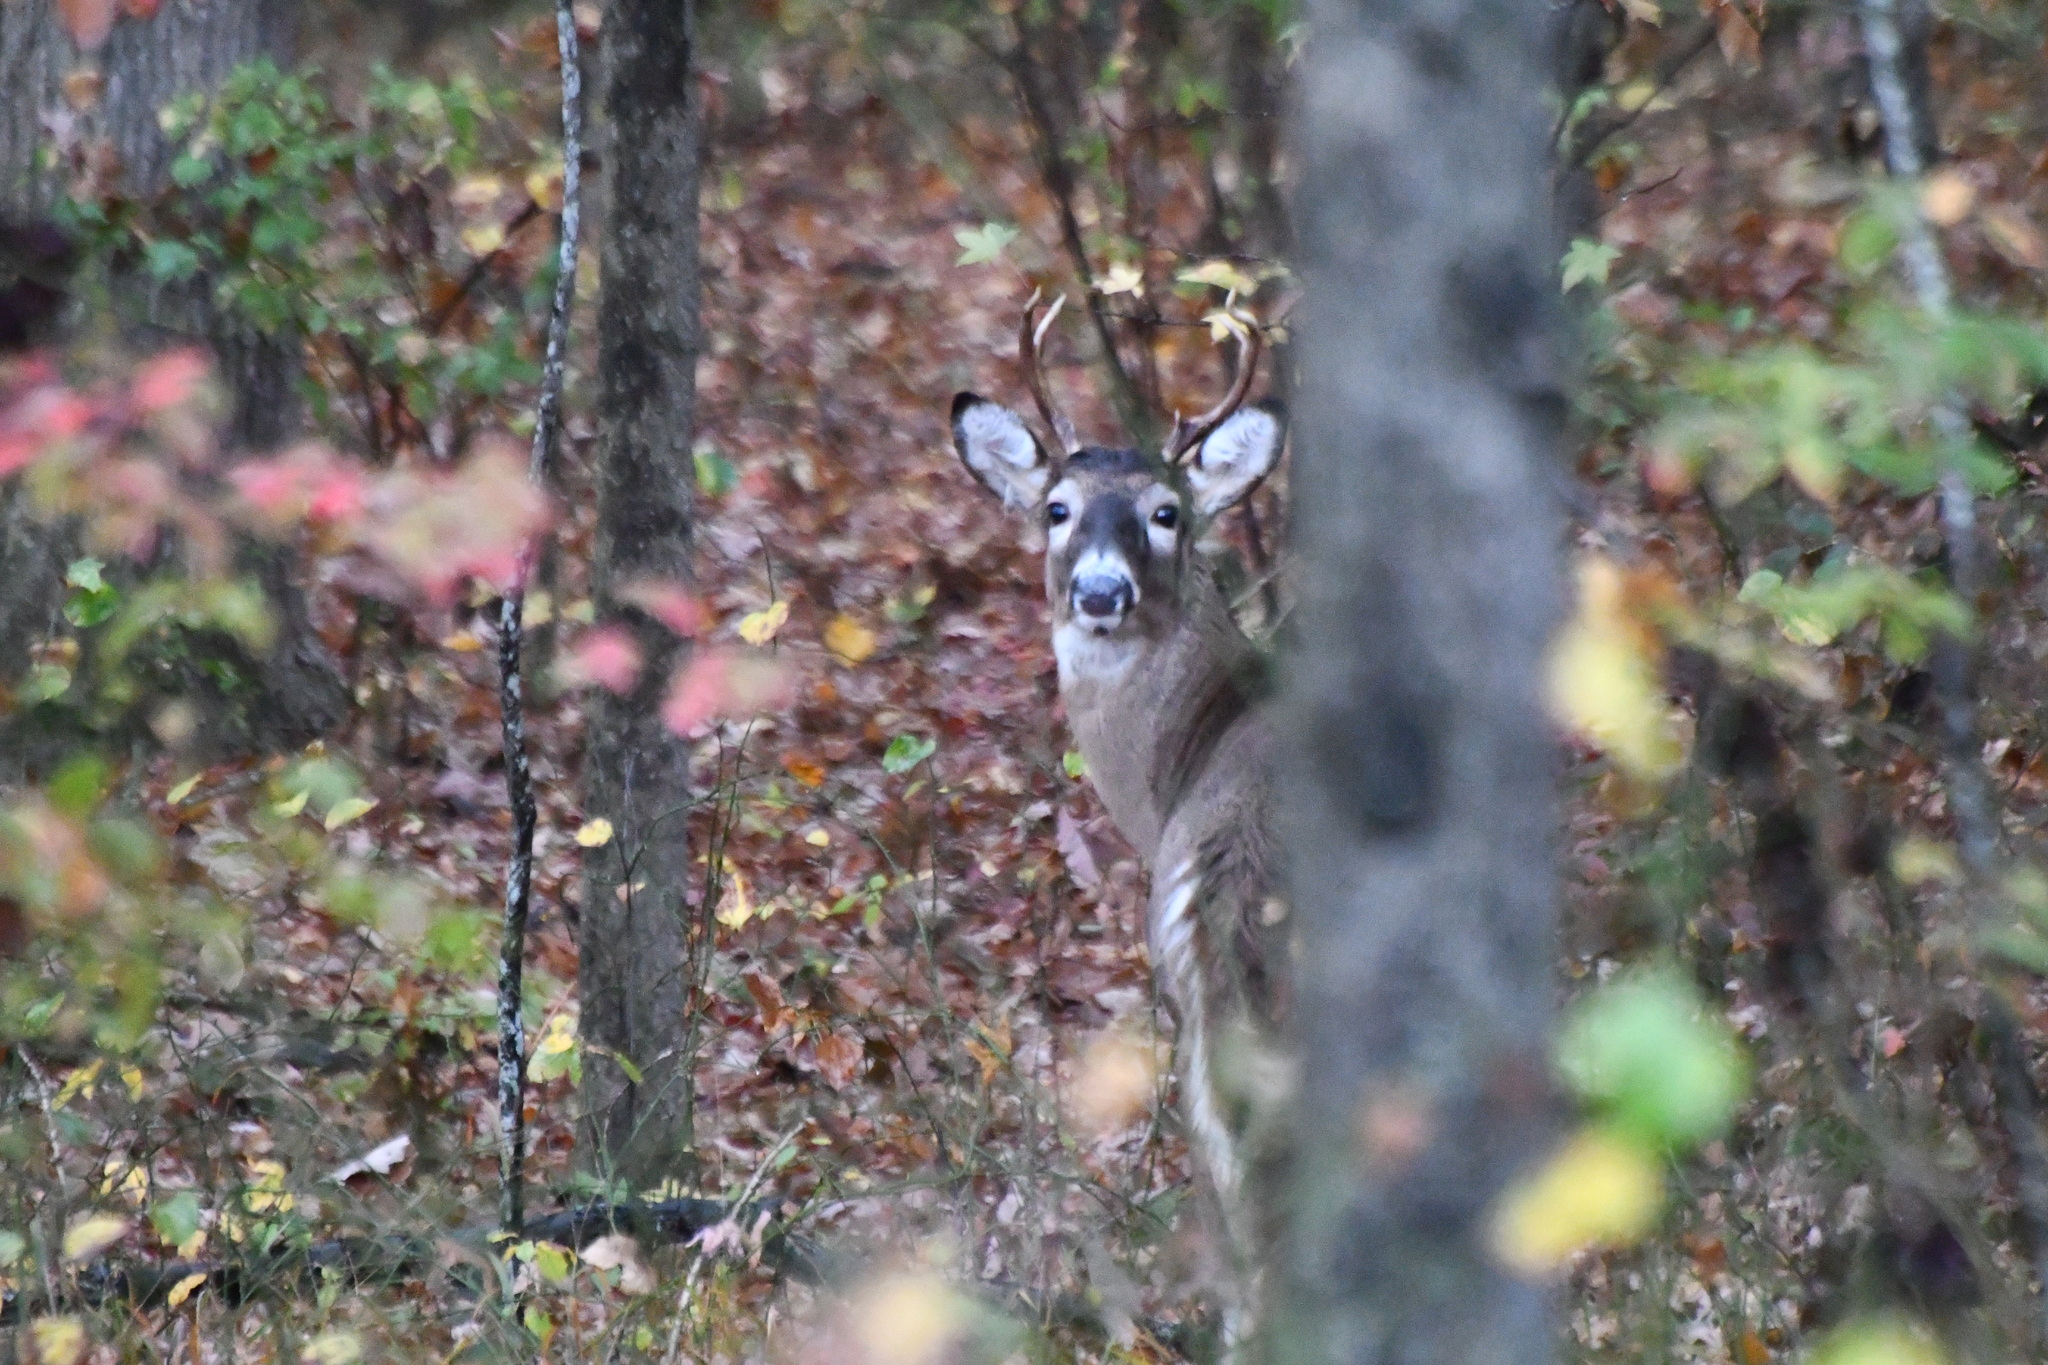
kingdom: Animalia
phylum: Chordata
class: Mammalia
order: Artiodactyla
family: Cervidae
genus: Odocoileus
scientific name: Odocoileus virginianus
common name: White-tailed deer
